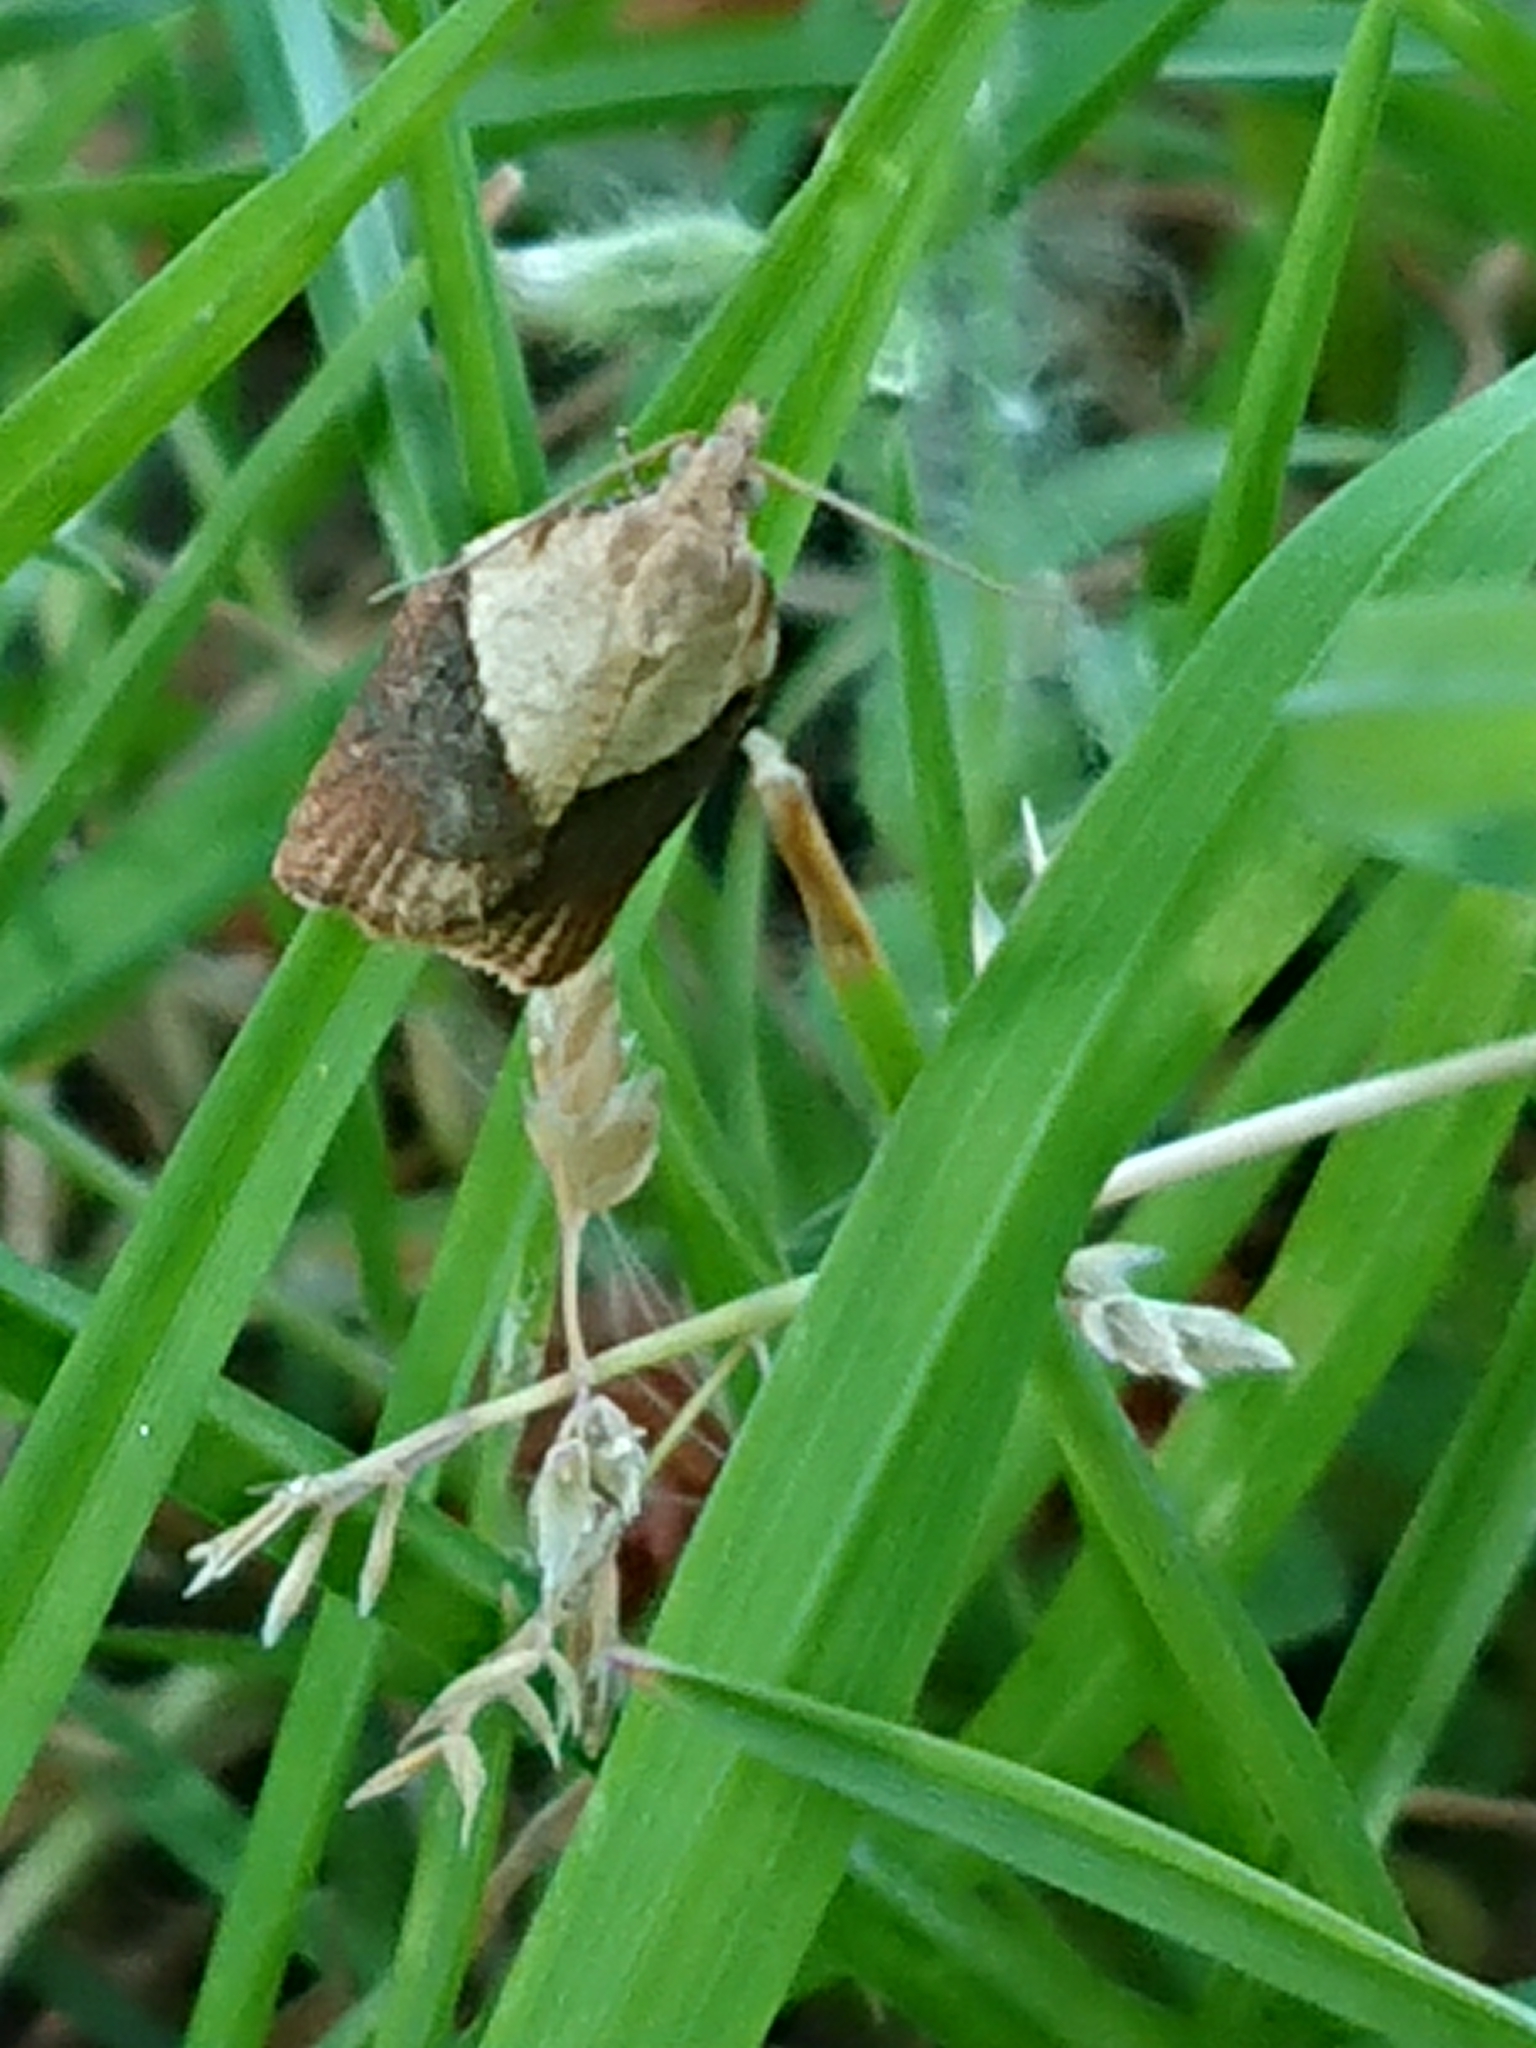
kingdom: Animalia
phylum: Arthropoda
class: Insecta
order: Lepidoptera
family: Tortricidae
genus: Epiphyas
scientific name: Epiphyas postvittana
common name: Light brown apple moth
